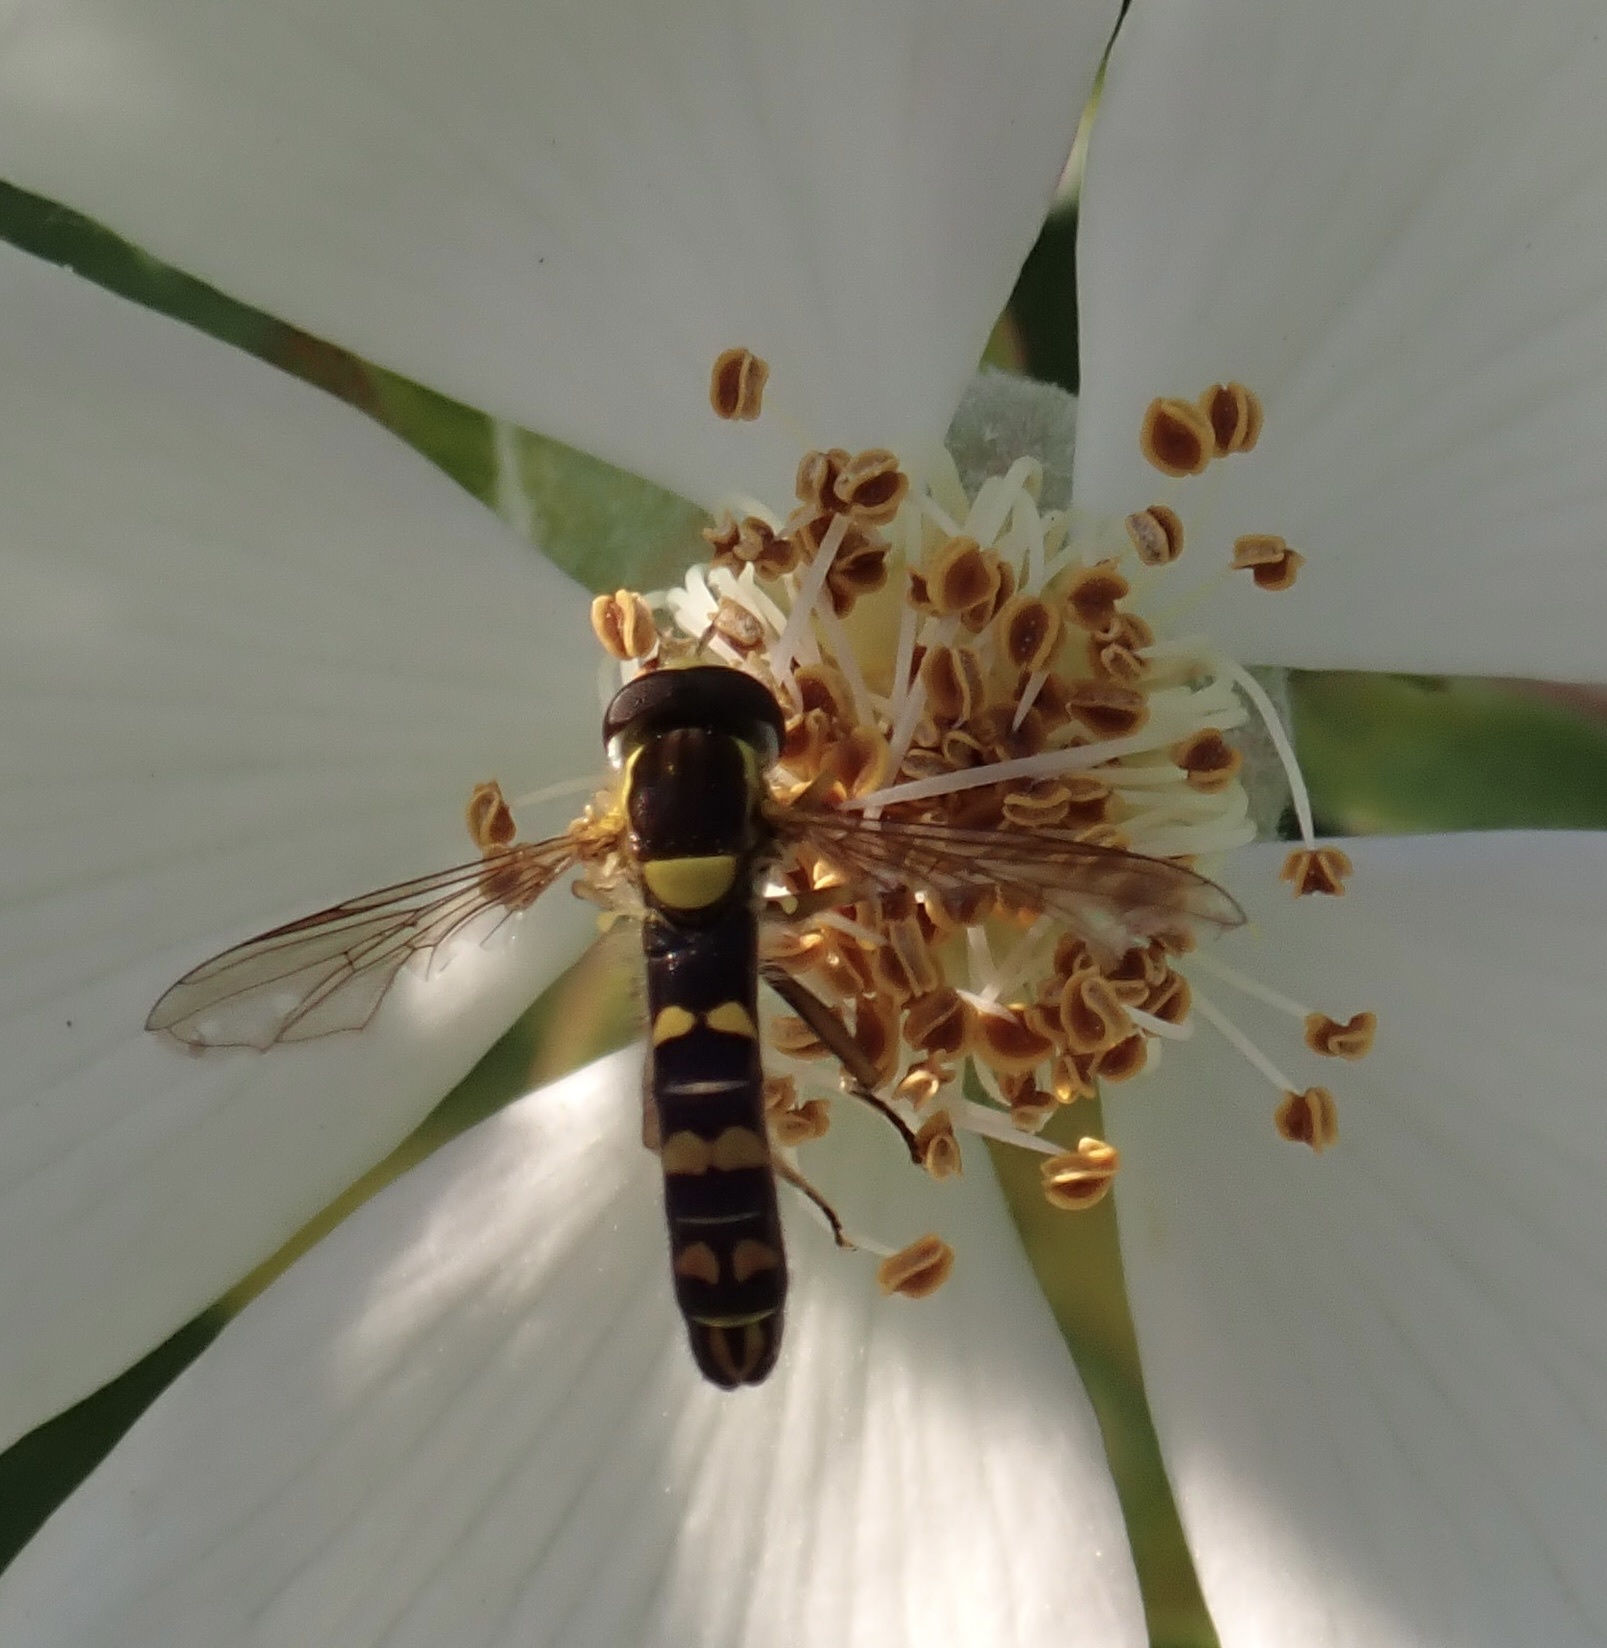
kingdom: Animalia
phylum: Arthropoda
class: Insecta
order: Diptera
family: Syrphidae
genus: Sphaerophoria
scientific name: Sphaerophoria
